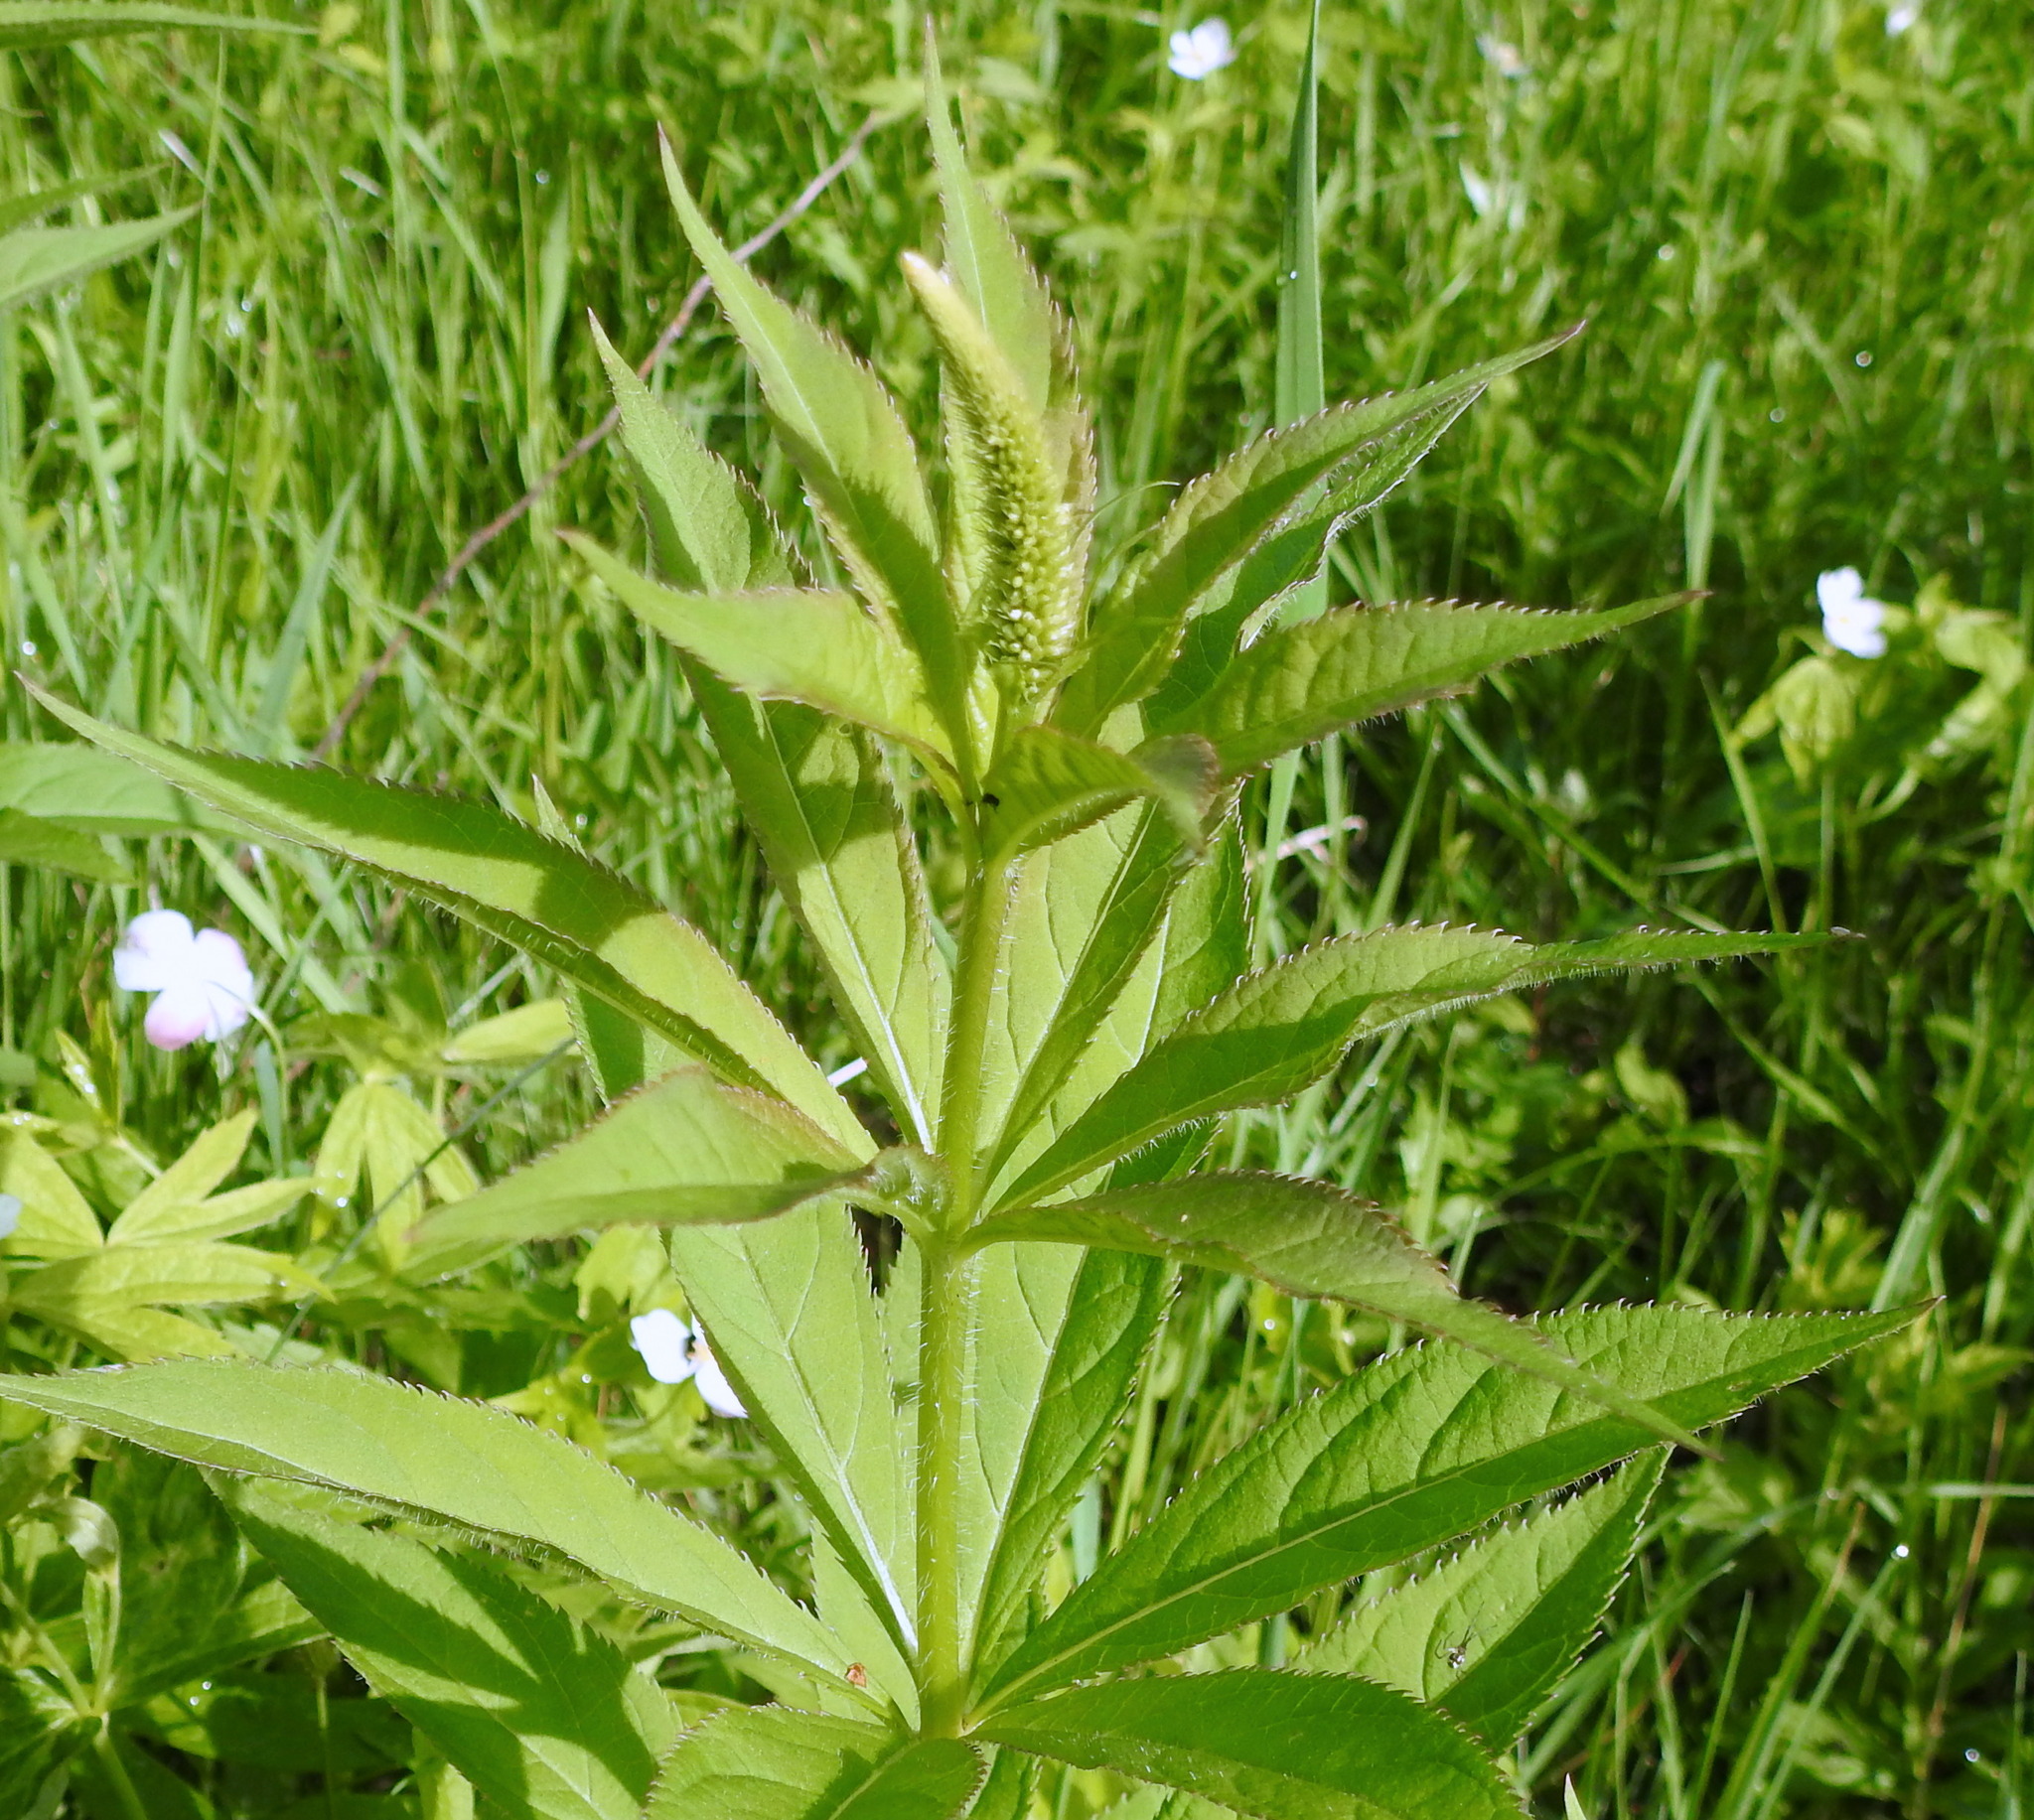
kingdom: Plantae
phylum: Tracheophyta
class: Magnoliopsida
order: Lamiales
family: Plantaginaceae
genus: Veronicastrum
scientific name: Veronicastrum sibiricum
